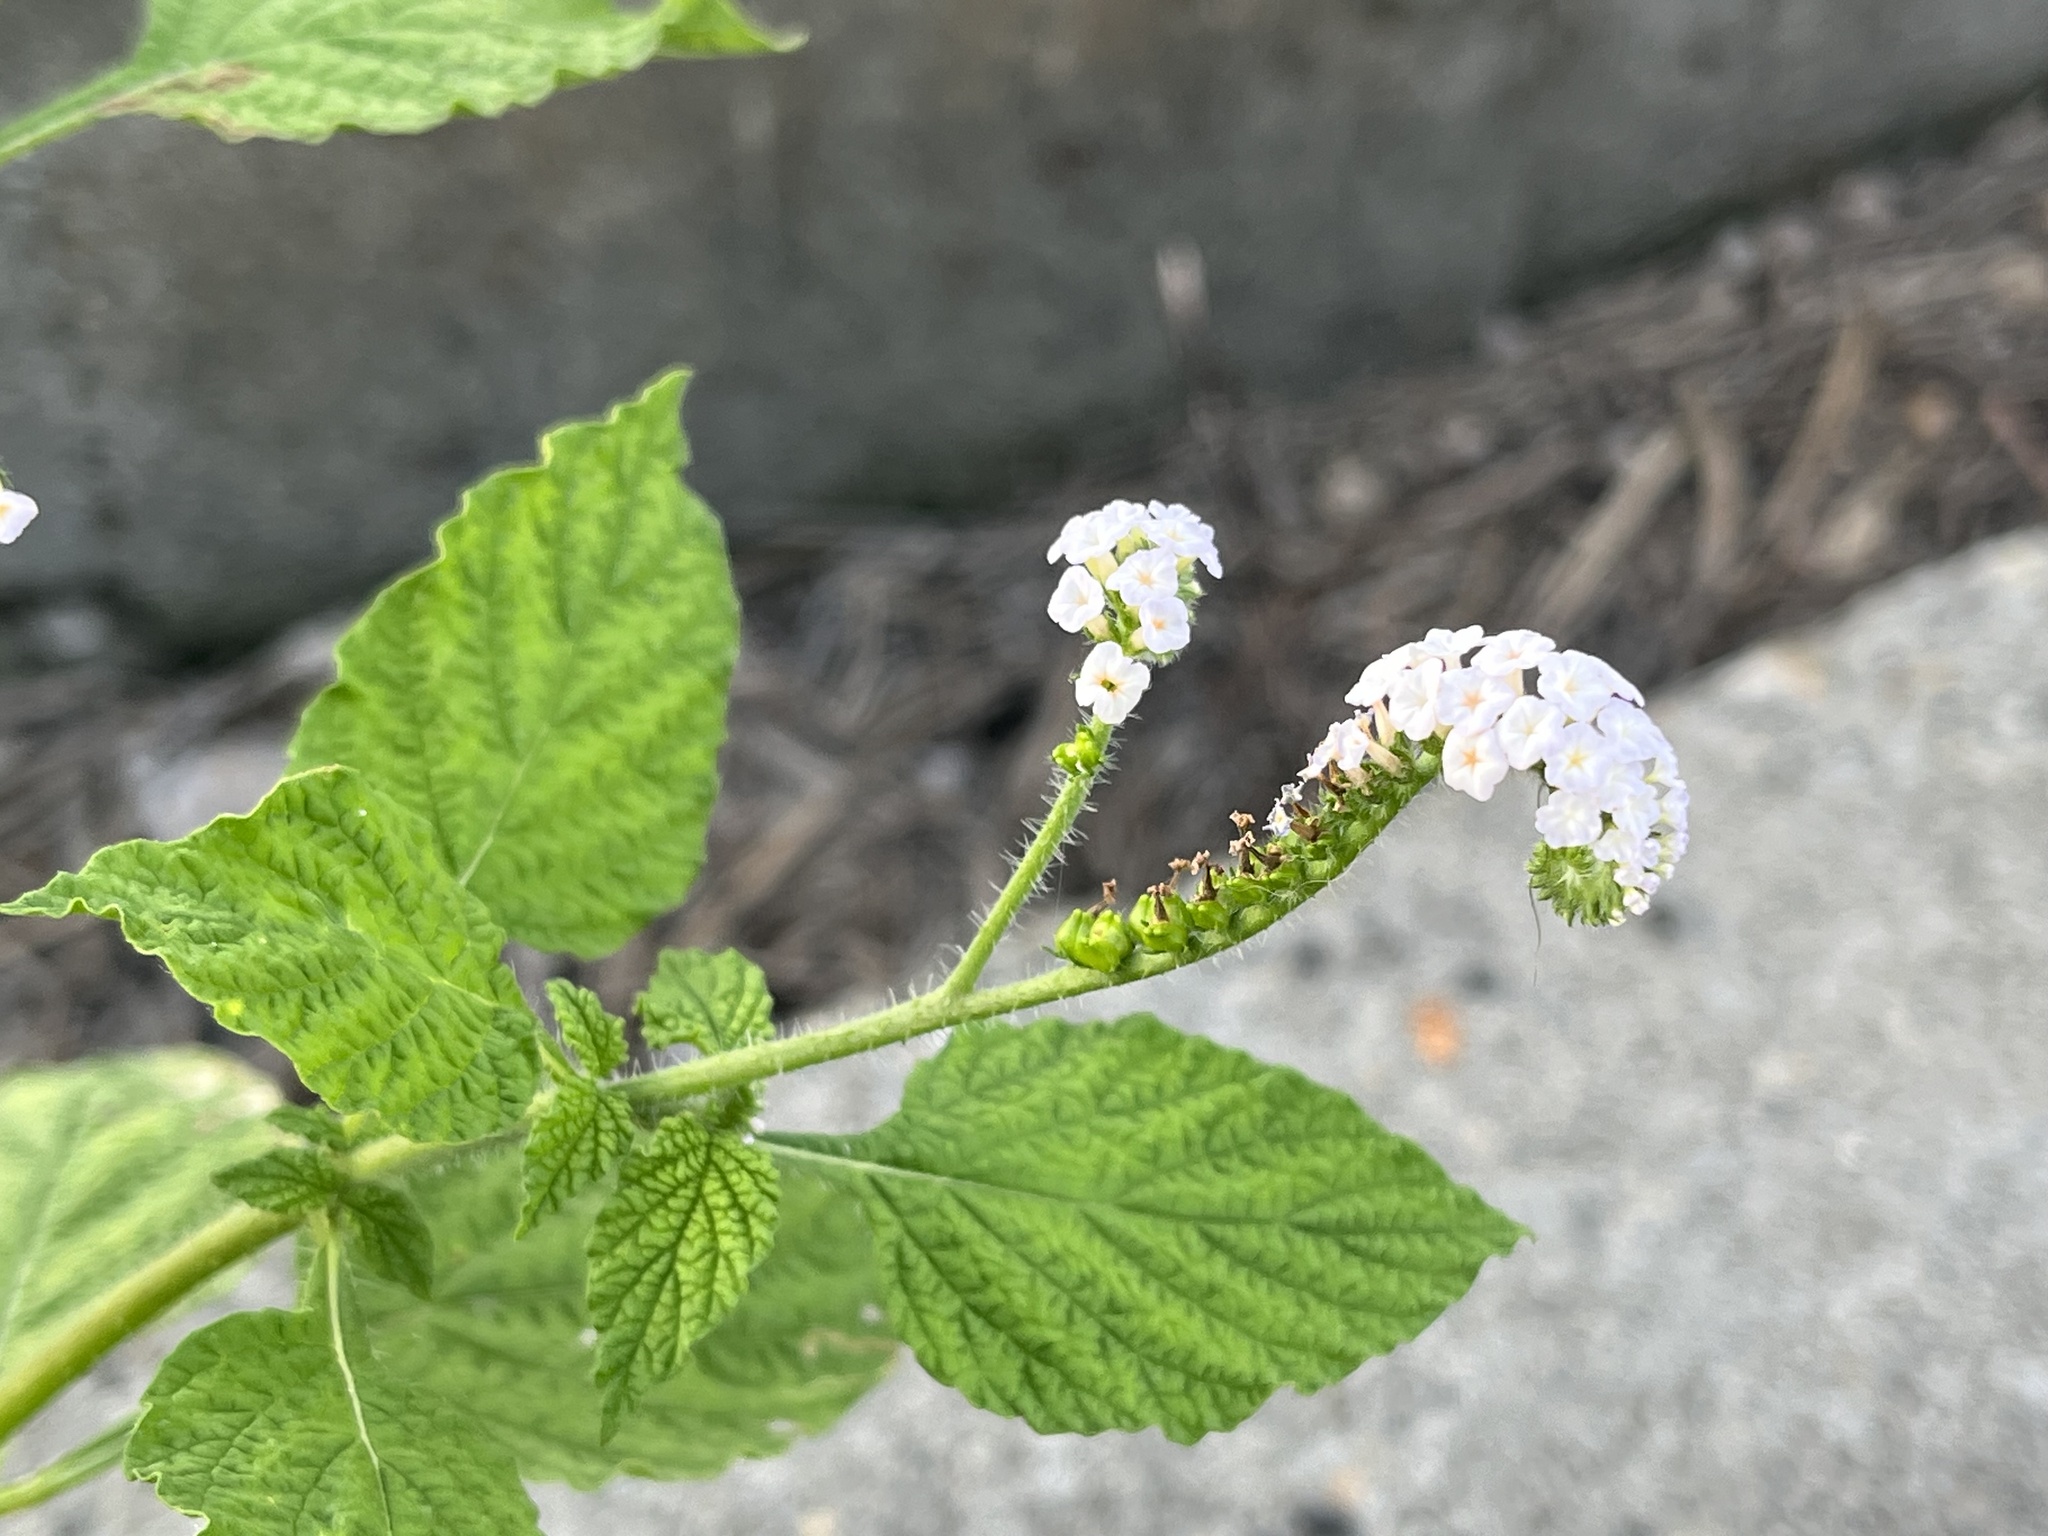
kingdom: Plantae
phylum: Tracheophyta
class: Magnoliopsida
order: Boraginales
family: Heliotropiaceae
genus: Heliotropium
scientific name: Heliotropium indicum
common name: Indian heliotrope
